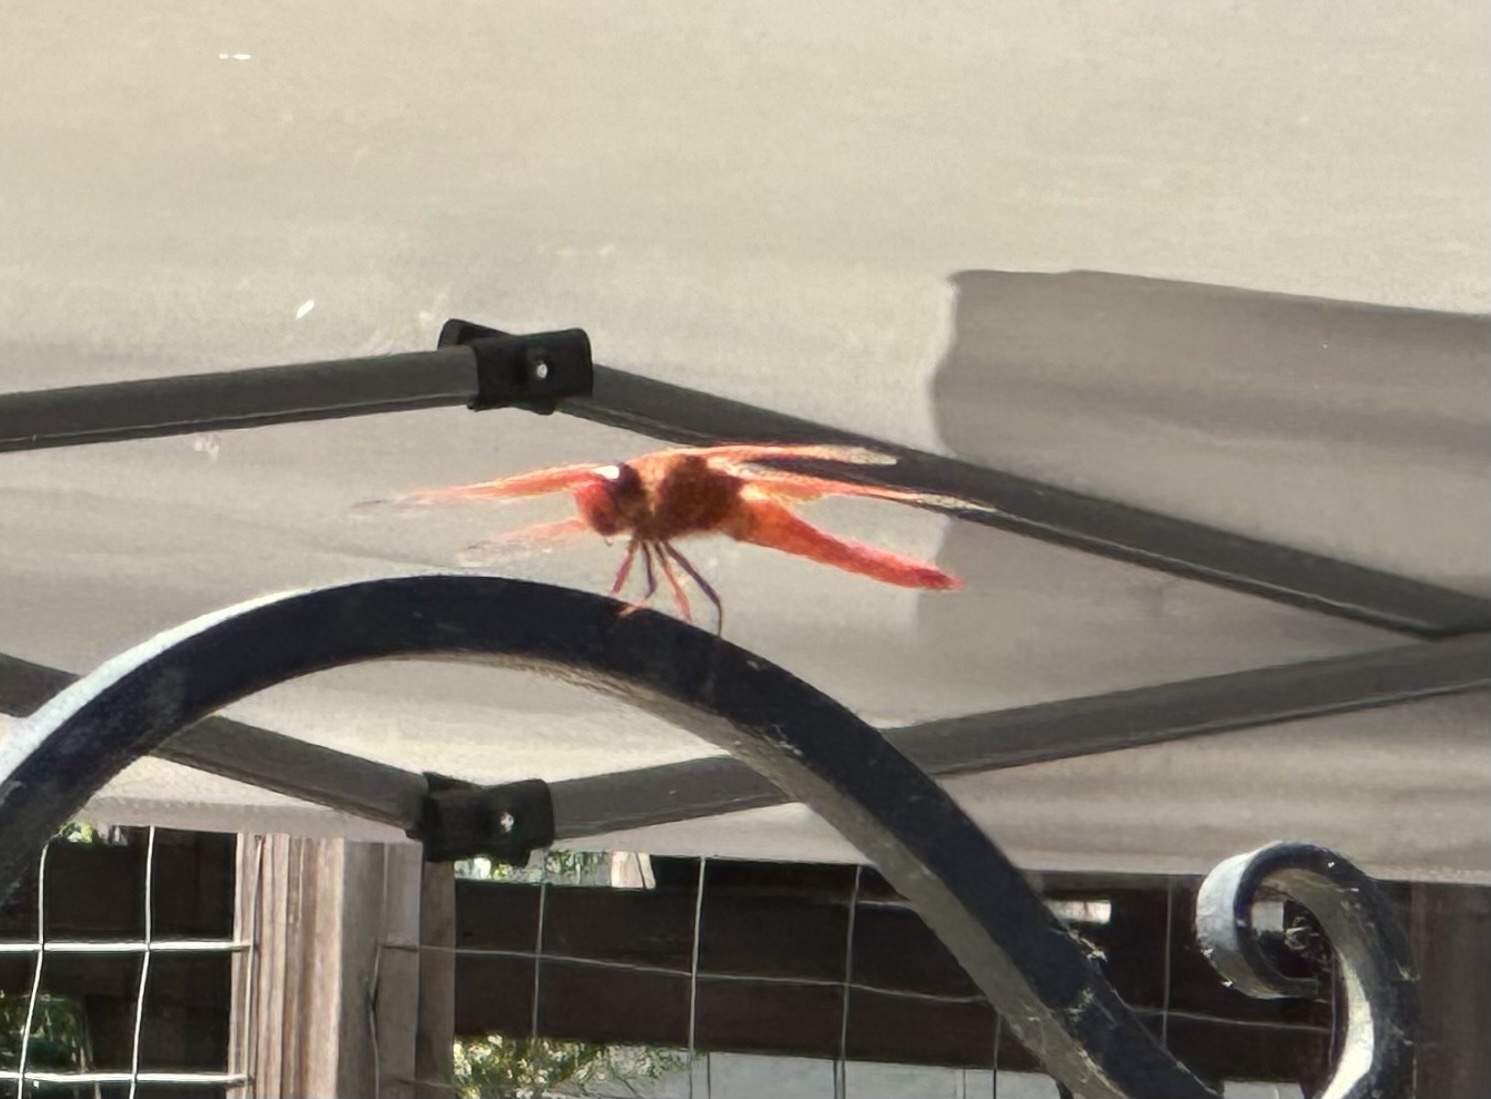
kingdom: Animalia
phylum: Arthropoda
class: Insecta
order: Odonata
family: Libellulidae
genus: Libellula
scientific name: Libellula saturata
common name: Flame skimmer
